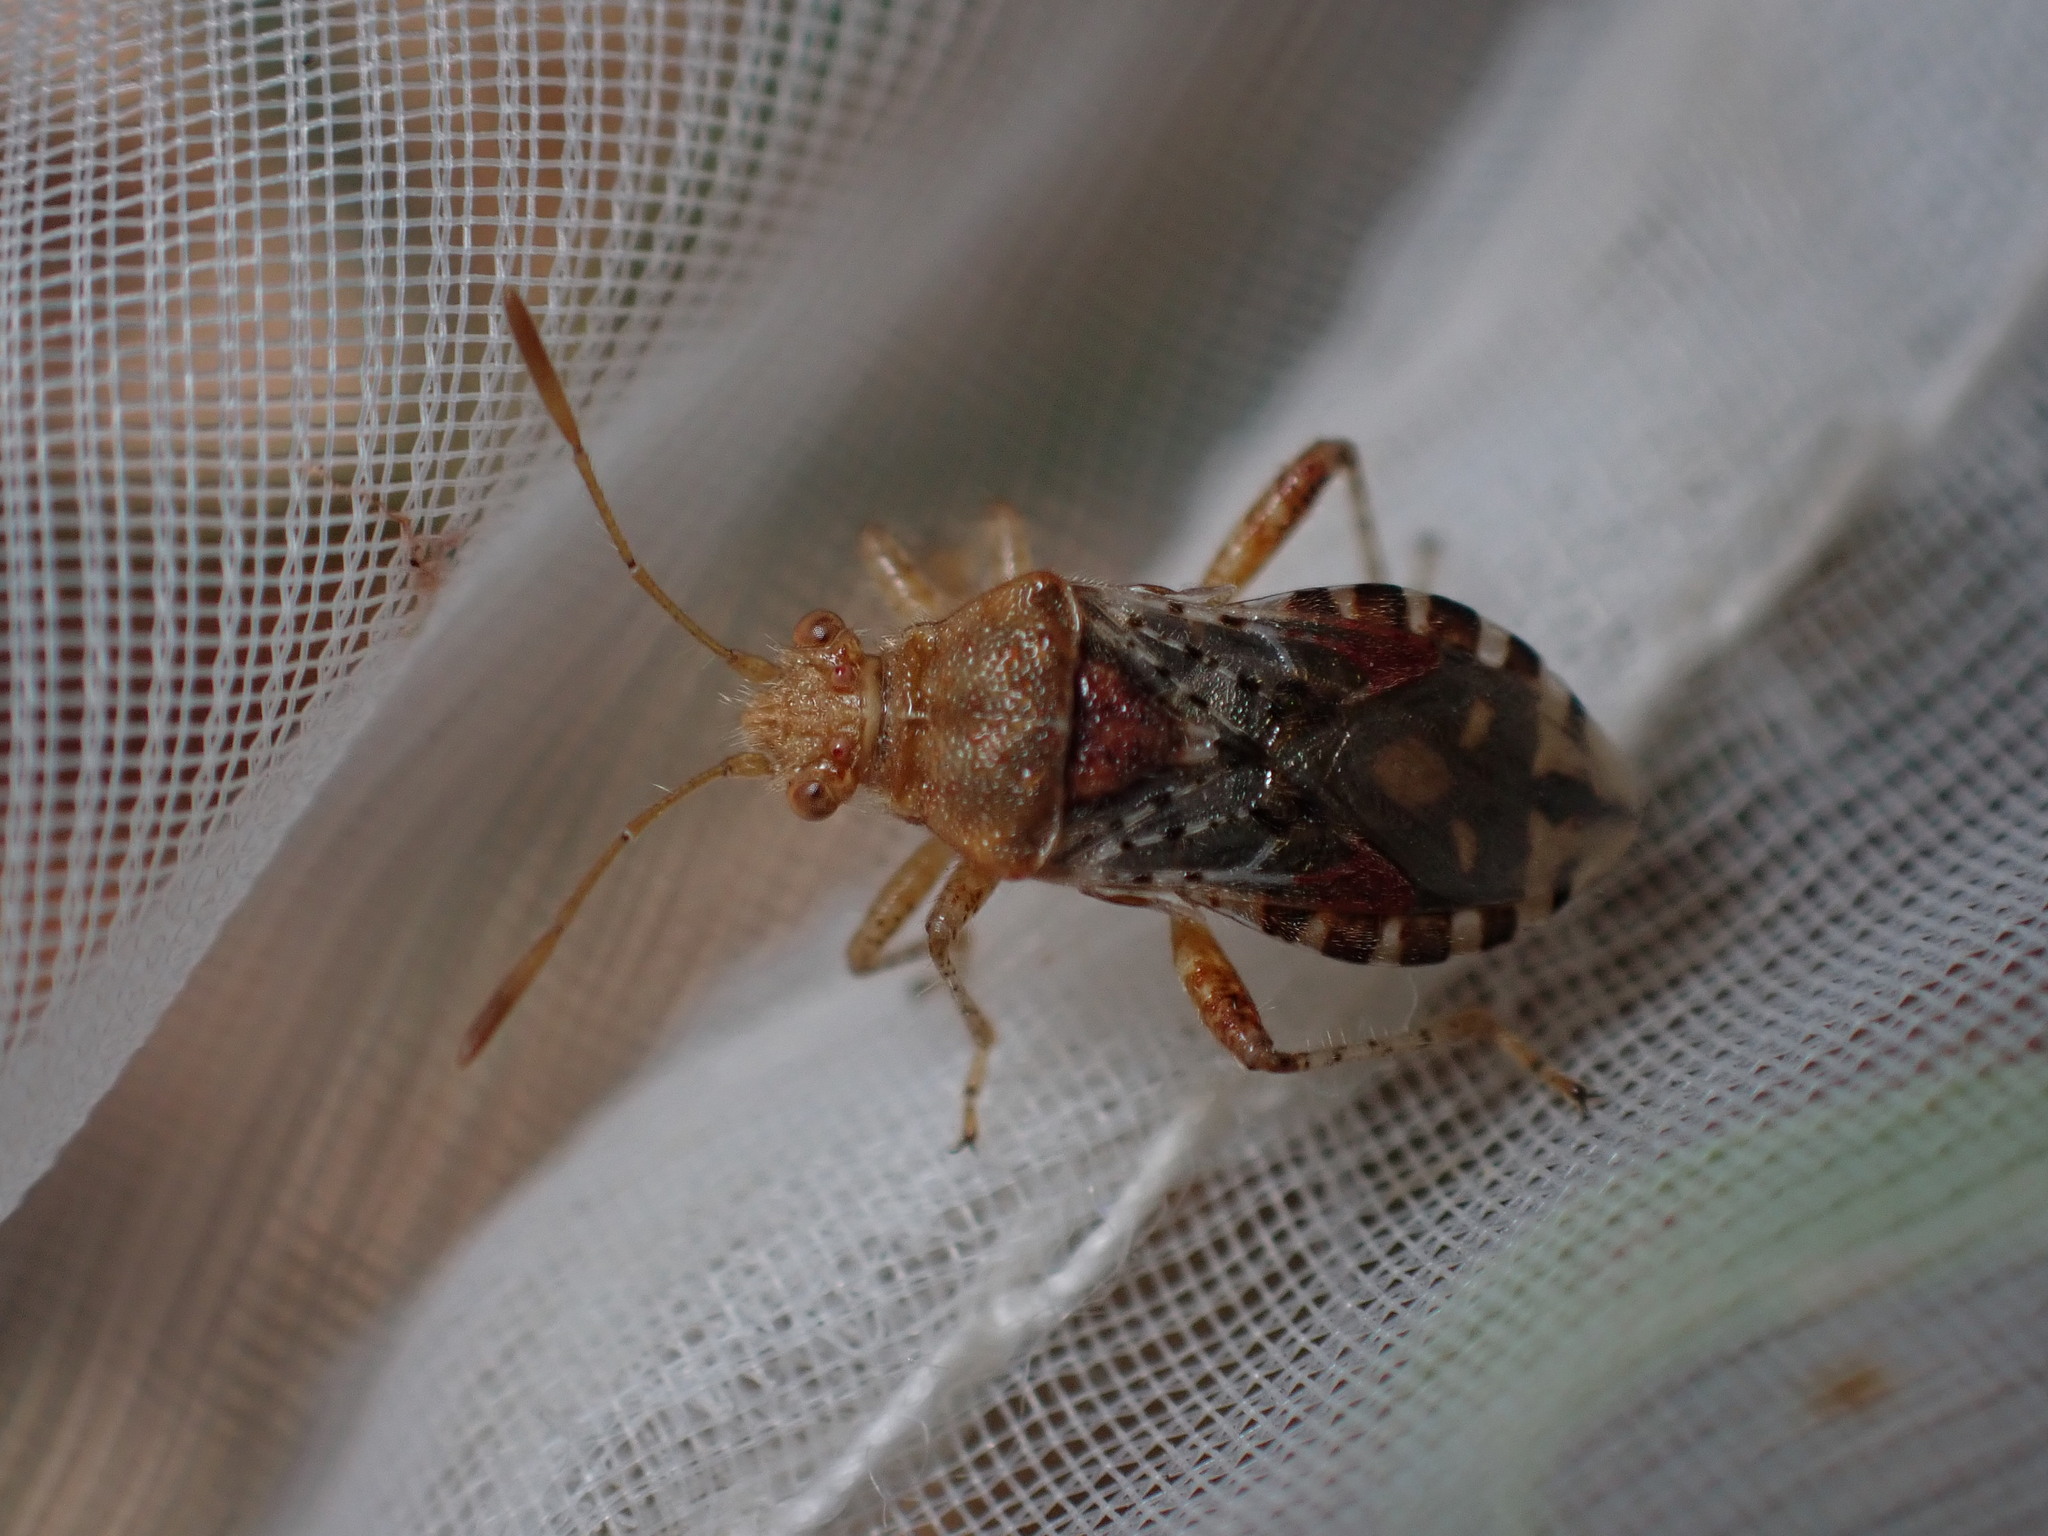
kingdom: Animalia
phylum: Arthropoda
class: Insecta
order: Hemiptera
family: Rhopalidae
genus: Rhopalus
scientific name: Rhopalus subrufus
